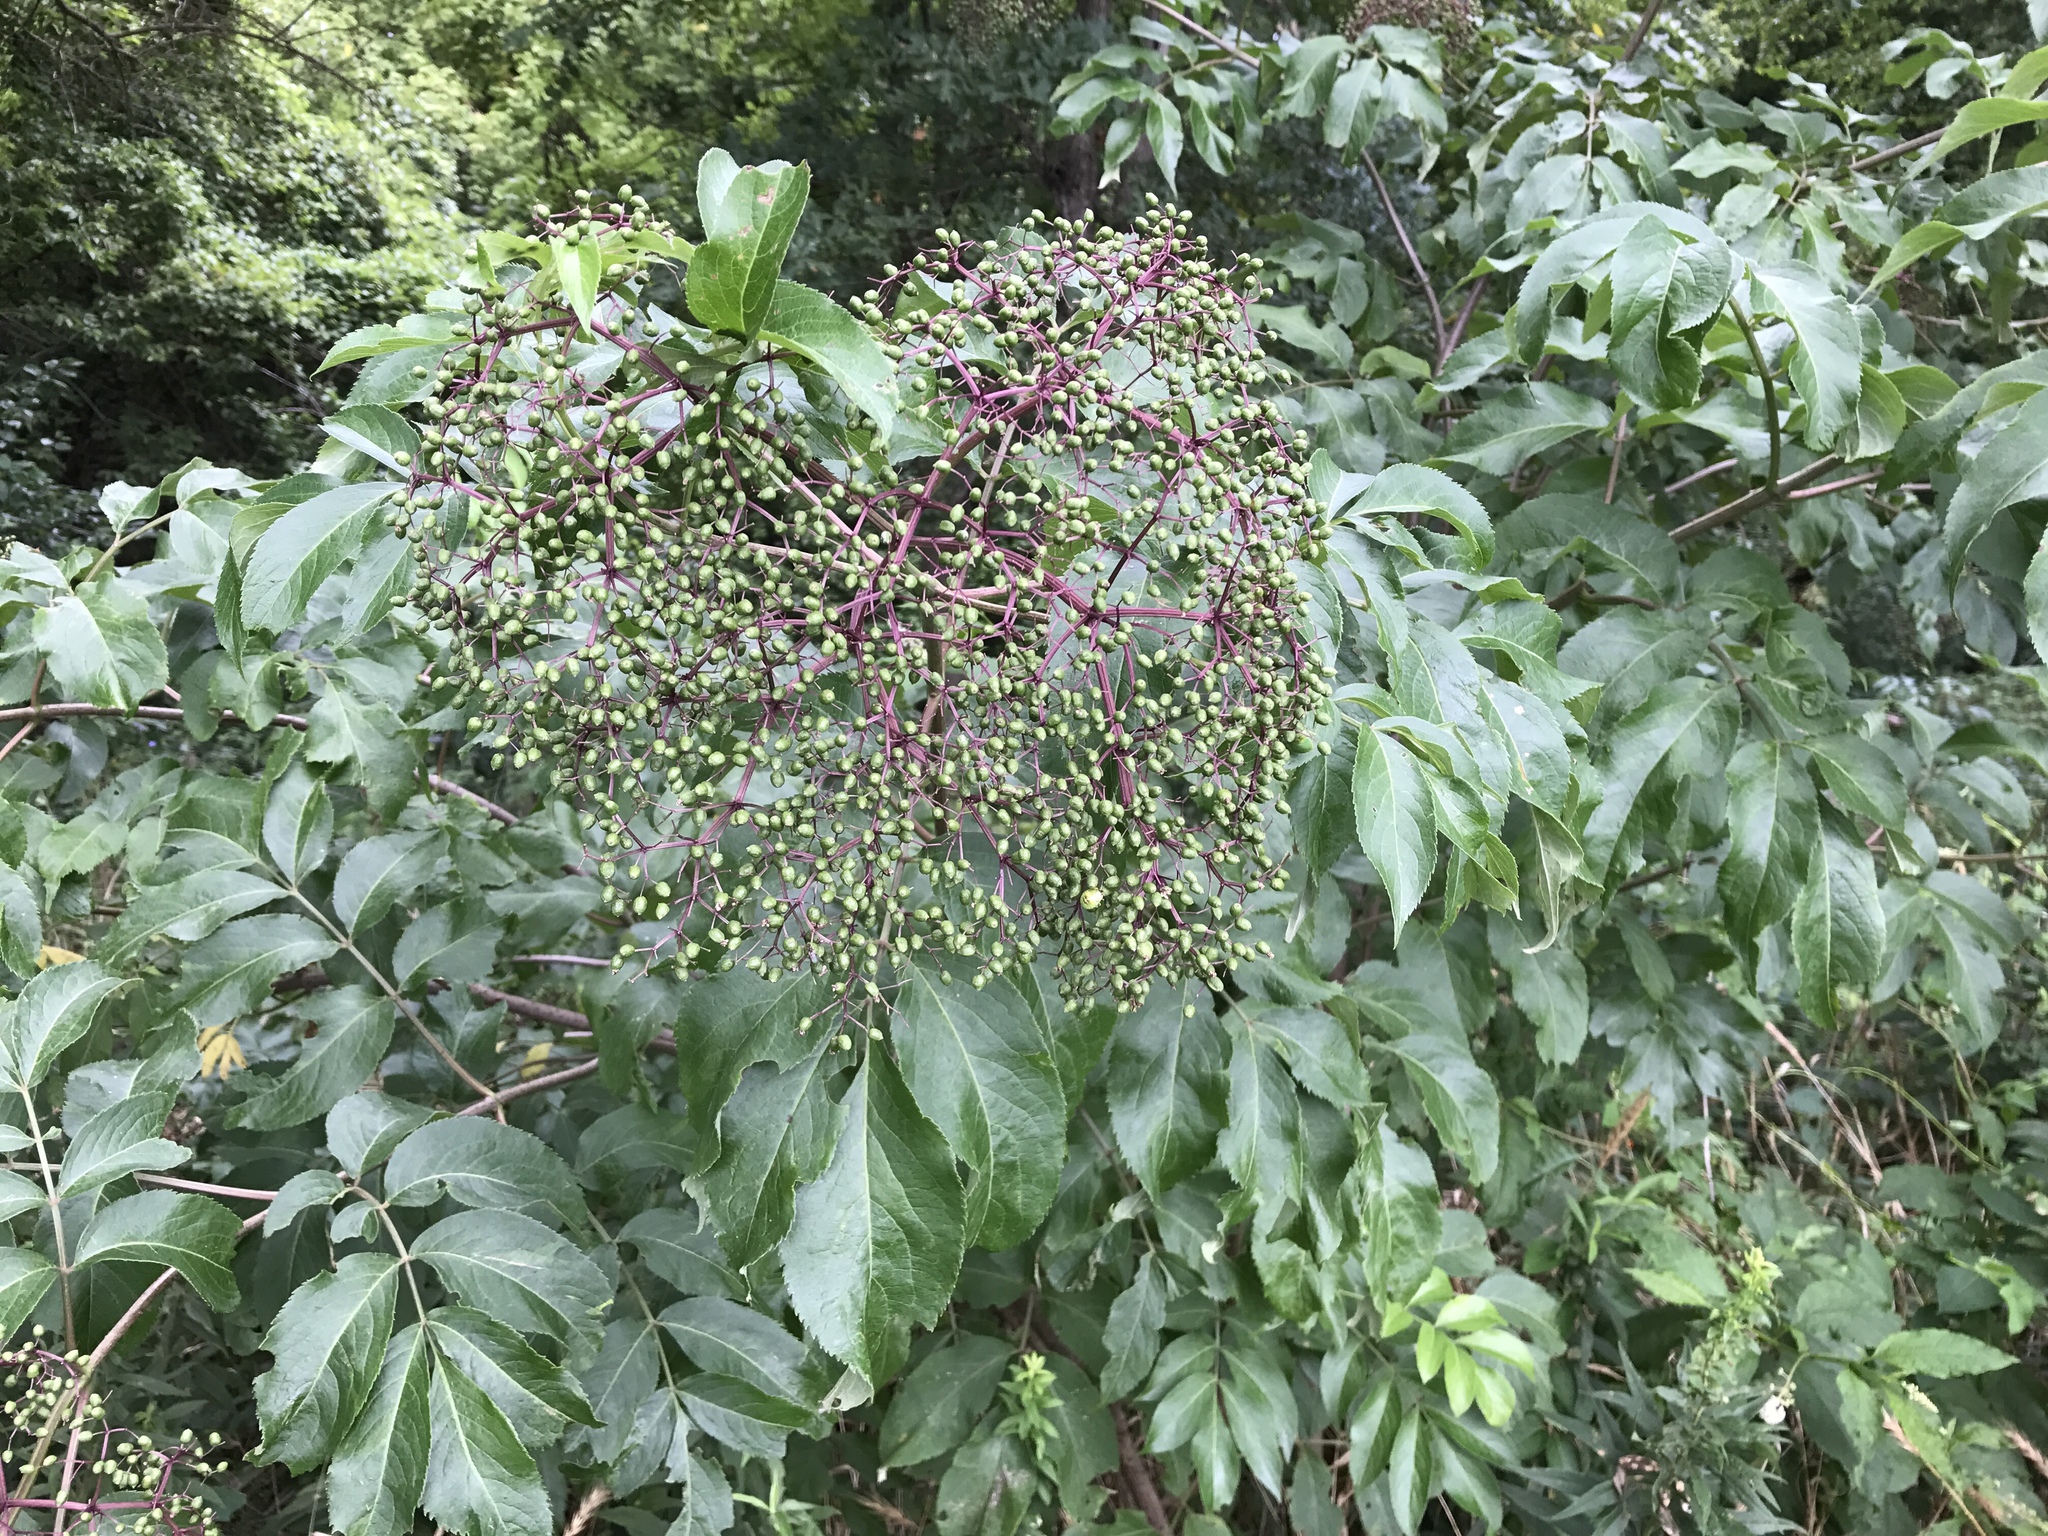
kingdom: Plantae
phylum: Tracheophyta
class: Magnoliopsida
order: Dipsacales
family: Viburnaceae
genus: Sambucus
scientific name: Sambucus canadensis
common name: American elder
